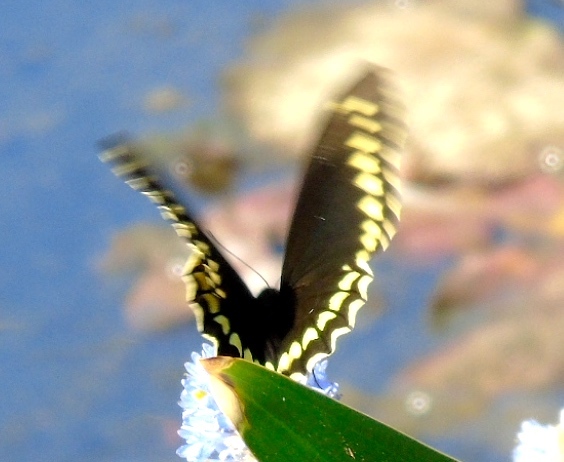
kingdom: Animalia
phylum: Arthropoda
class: Insecta
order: Lepidoptera
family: Papilionidae
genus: Battus
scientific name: Battus polydamas
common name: Polydamas swallowtail
